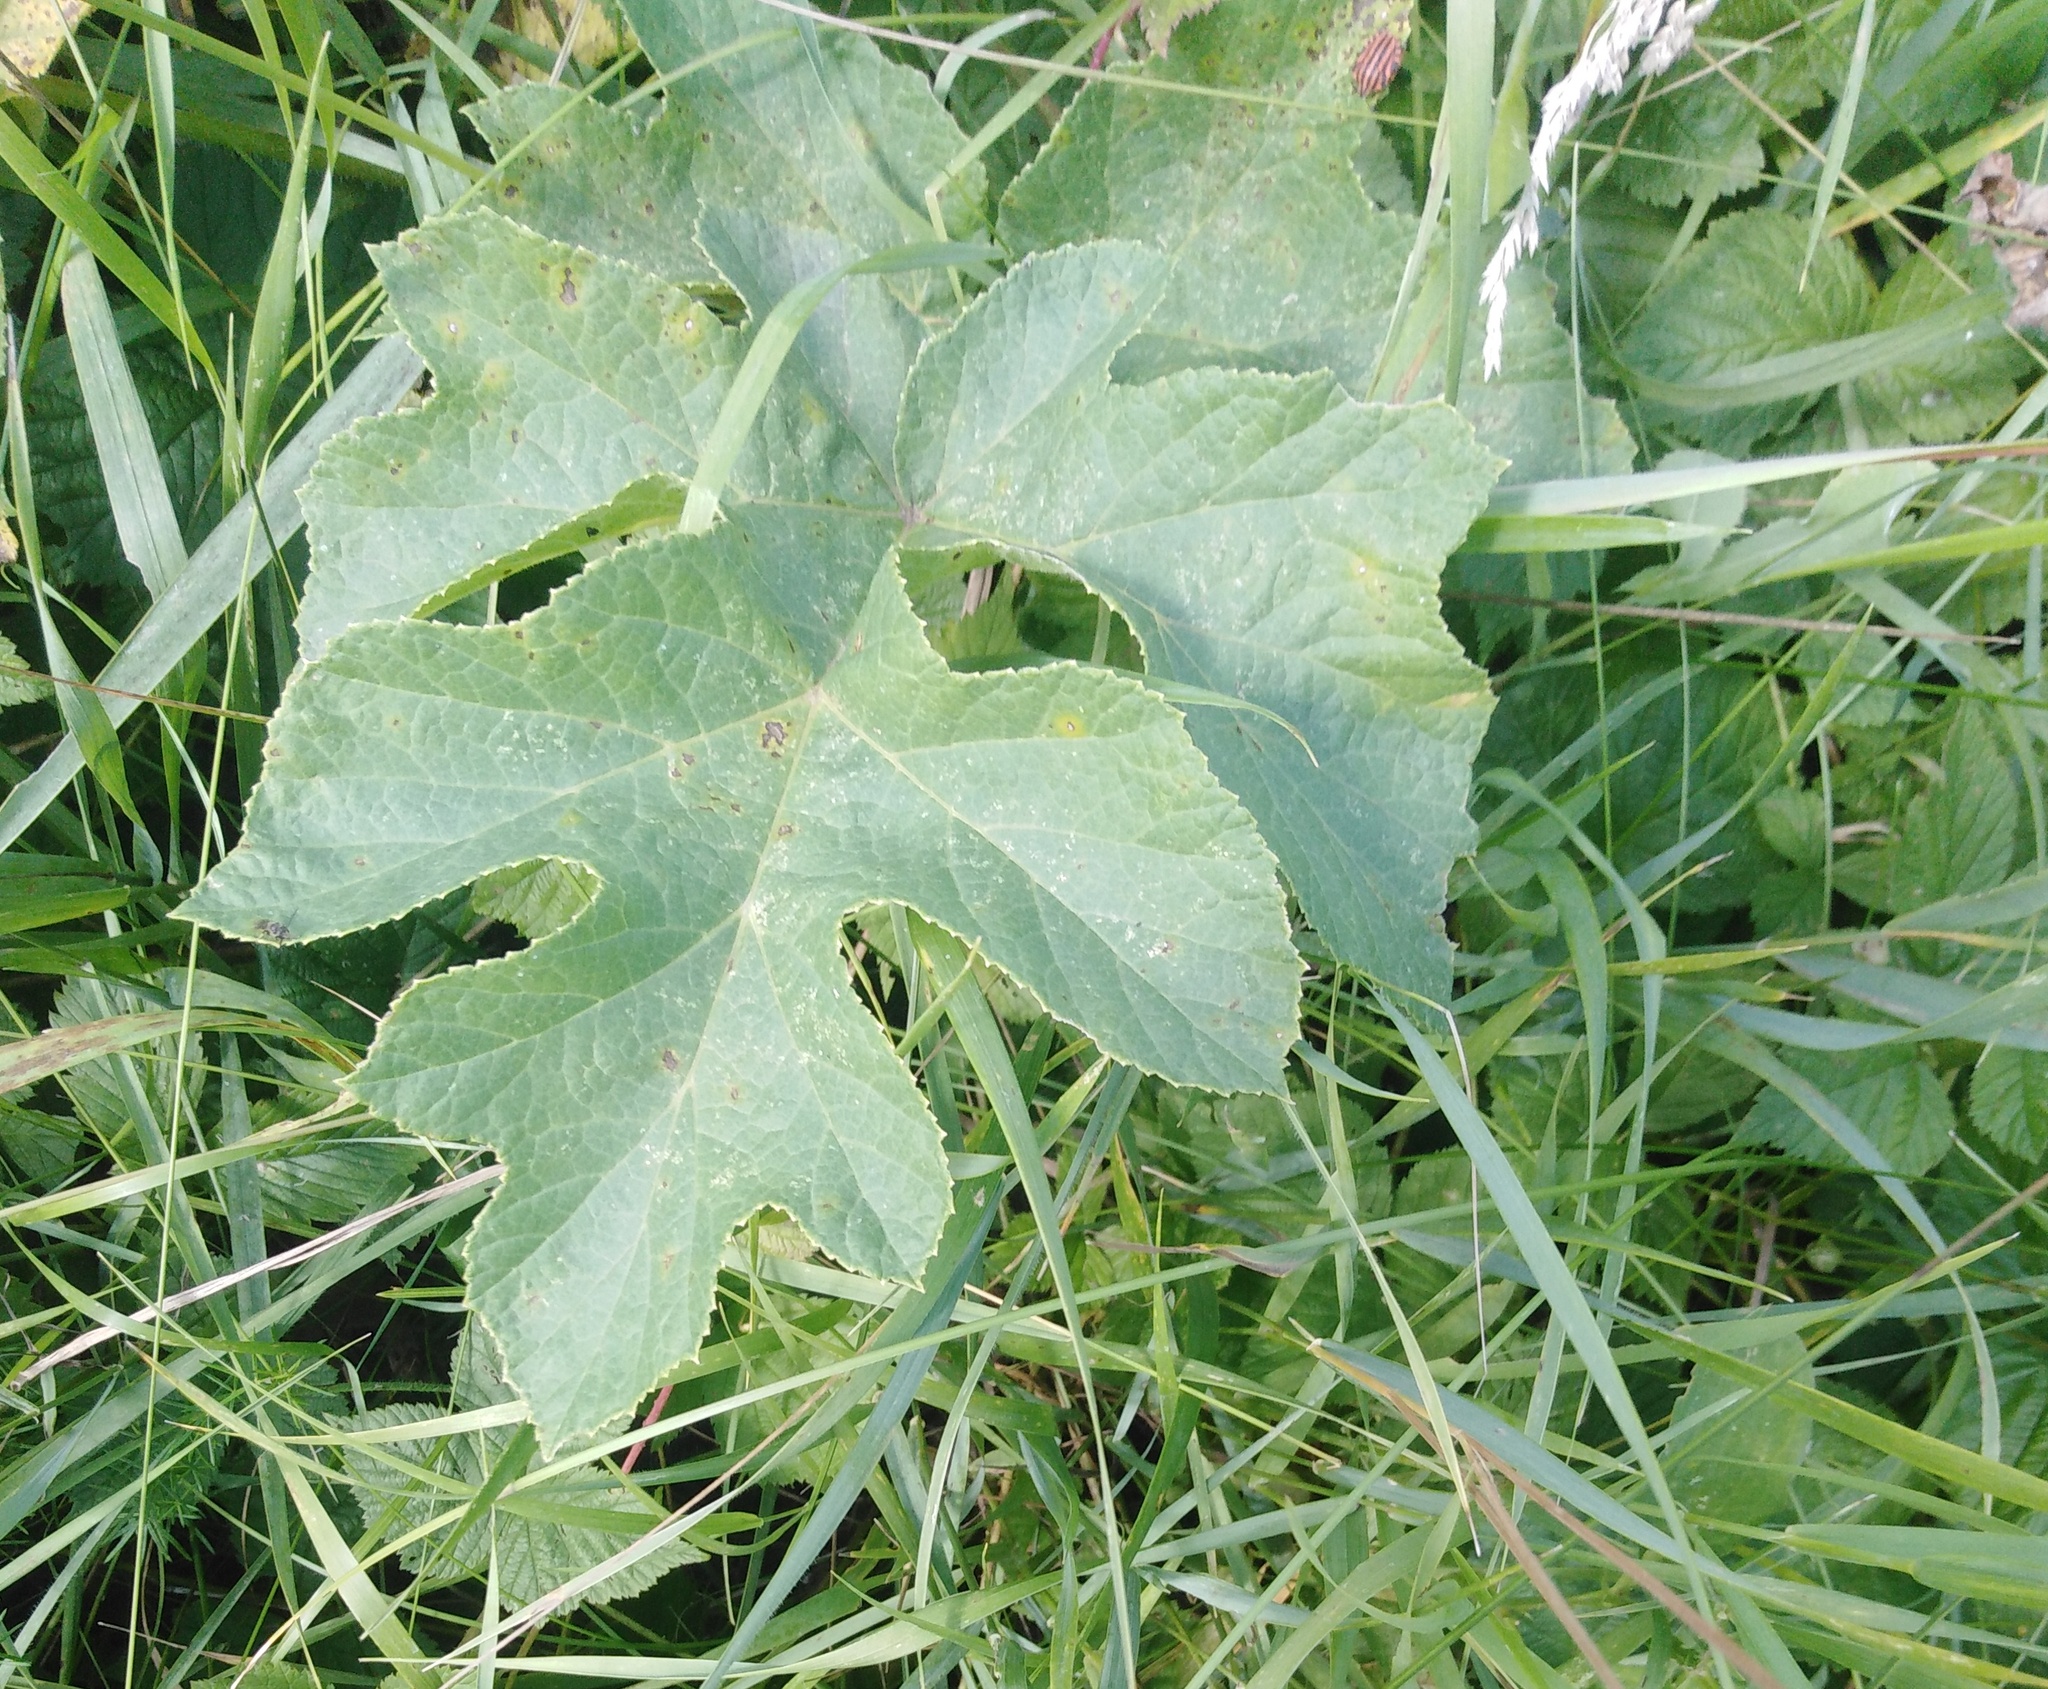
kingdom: Plantae
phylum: Tracheophyta
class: Magnoliopsida
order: Apiales
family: Apiaceae
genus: Heracleum
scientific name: Heracleum sphondylium
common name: Hogweed
